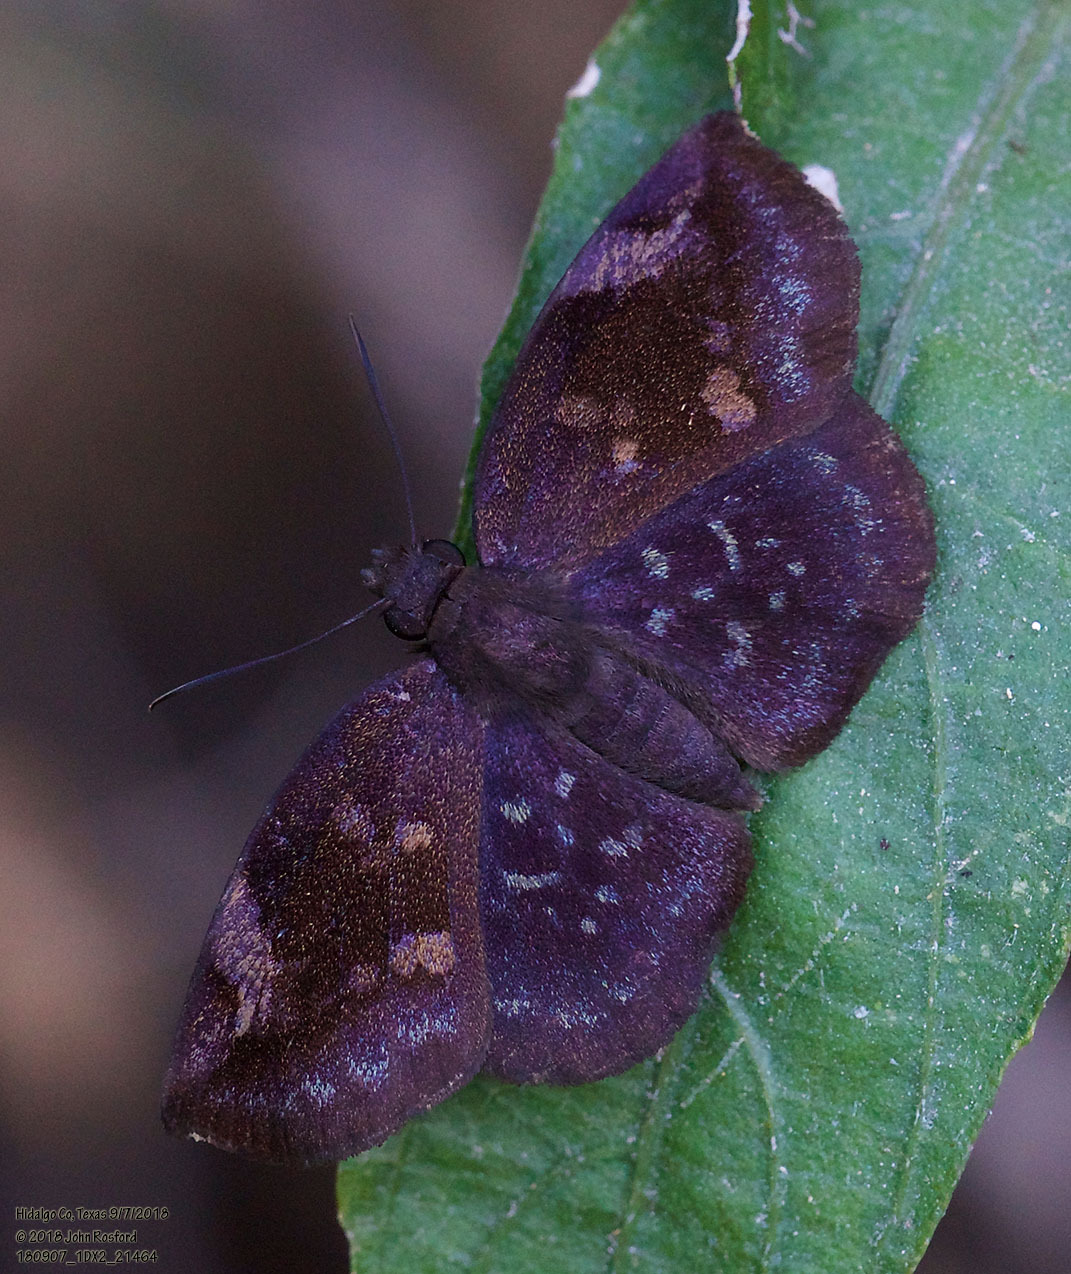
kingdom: Animalia
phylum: Arthropoda
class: Insecta
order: Lepidoptera
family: Hesperiidae
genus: Achlyodes
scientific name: Achlyodes thraso
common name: Sickle-winged skipper
